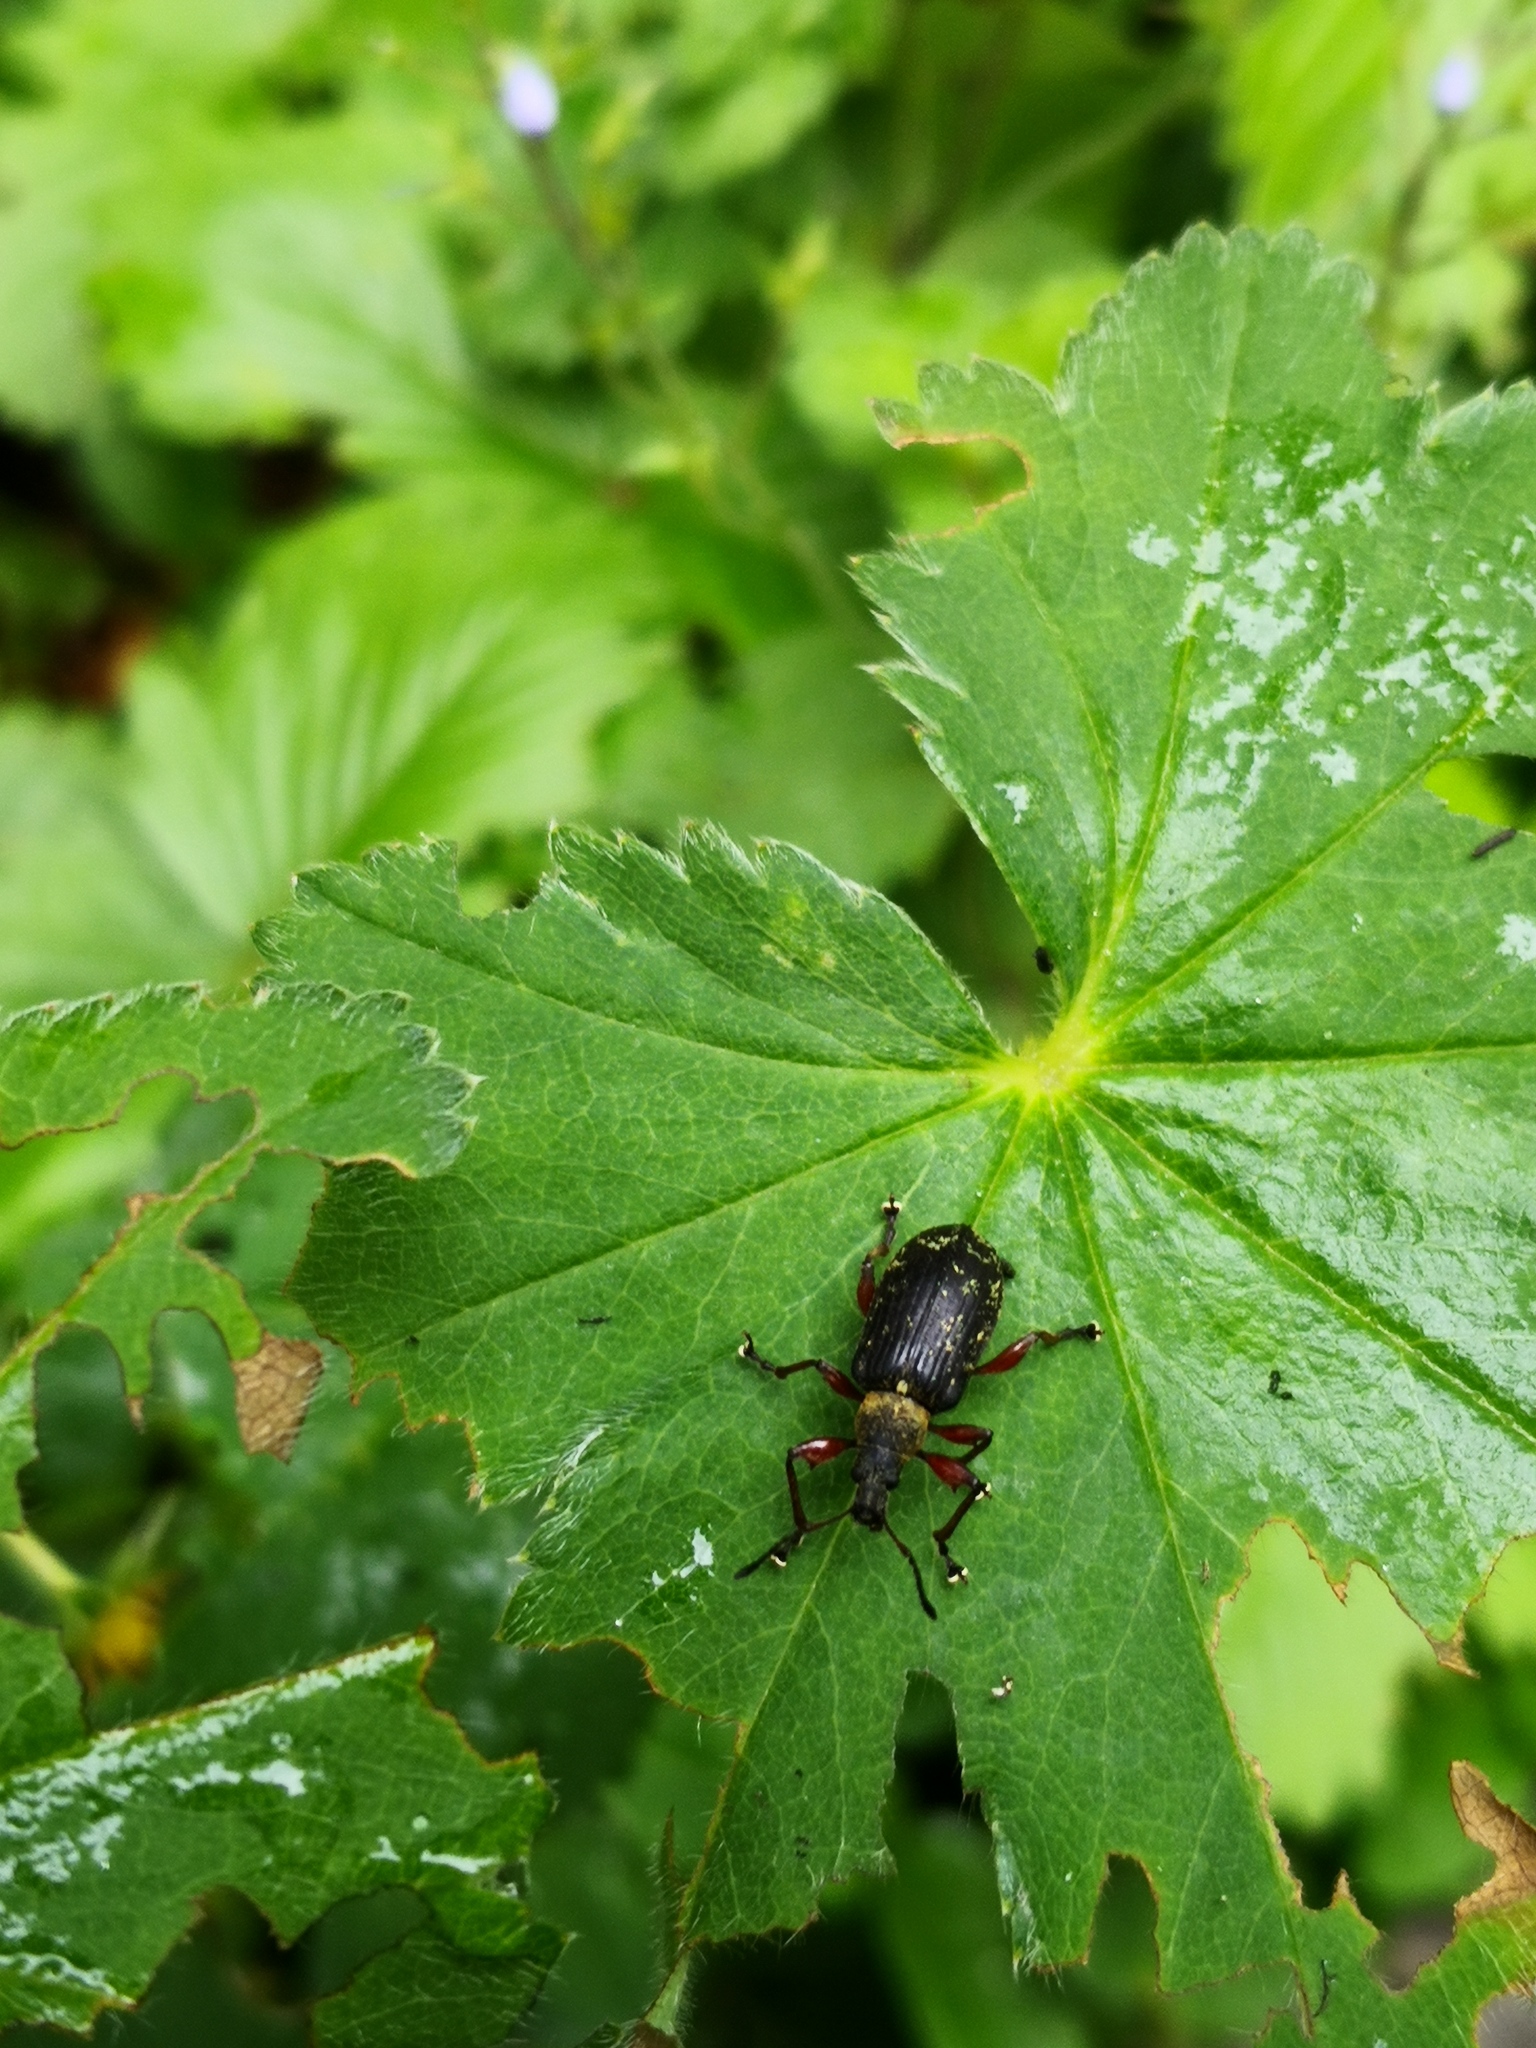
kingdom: Animalia
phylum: Arthropoda
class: Insecta
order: Coleoptera
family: Curculionidae
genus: Phyllobius
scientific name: Phyllobius glaucus
